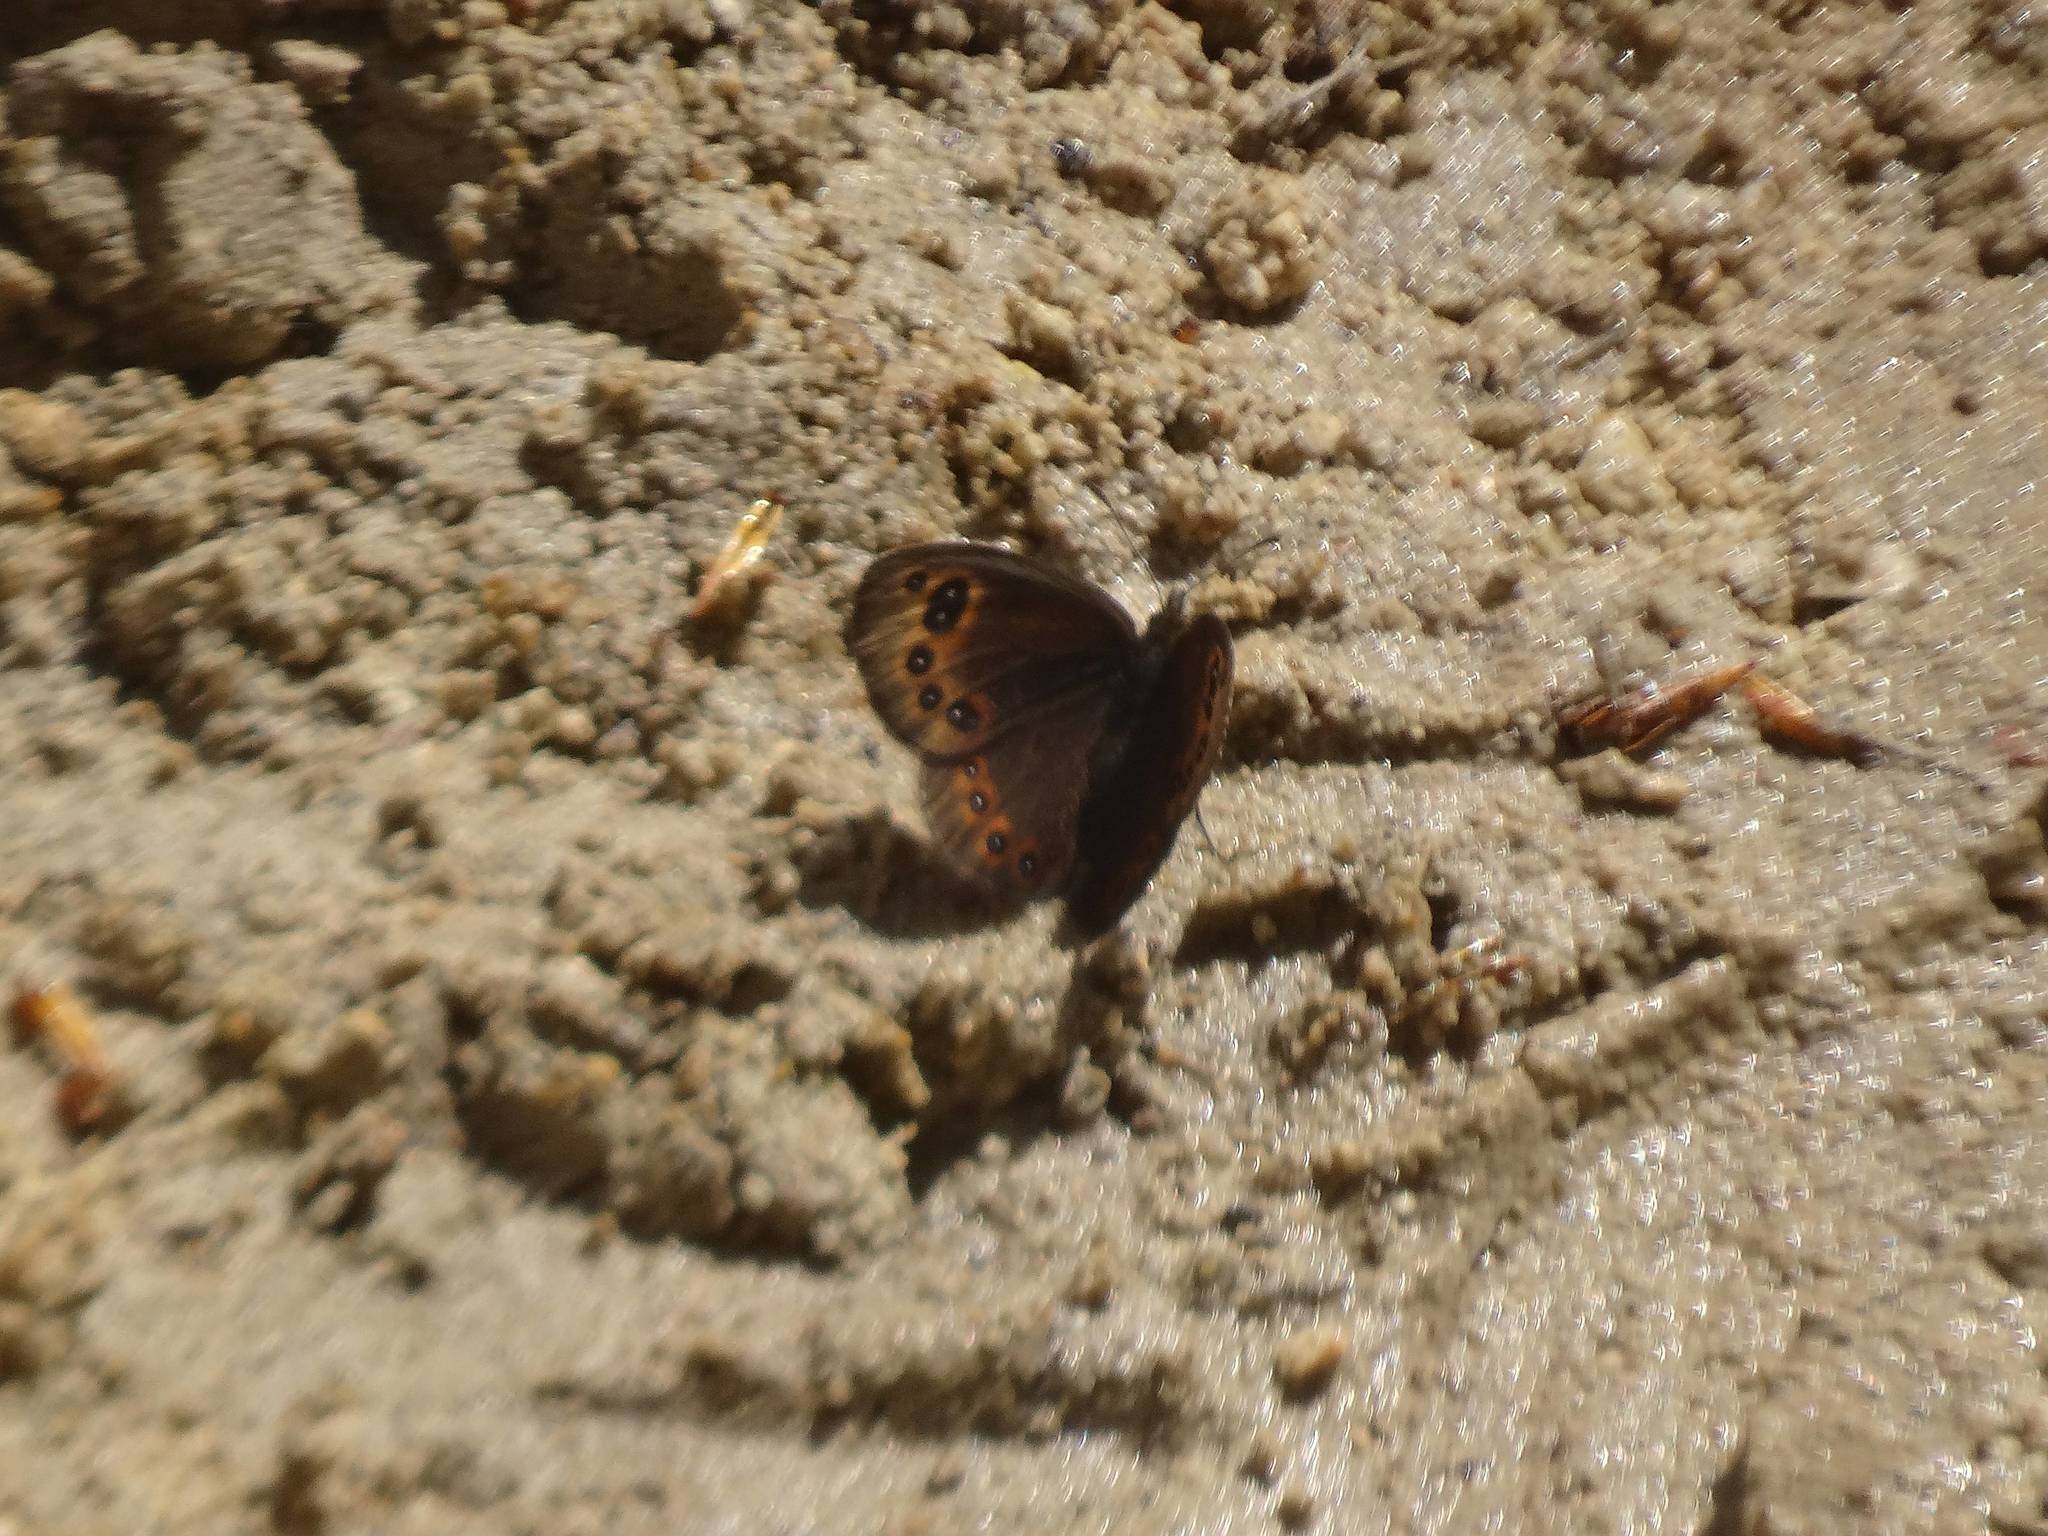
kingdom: Animalia
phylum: Arthropoda
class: Insecta
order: Lepidoptera
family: Nymphalidae
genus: Proterebia
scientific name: Proterebia afra
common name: Dalmatian ringlet
